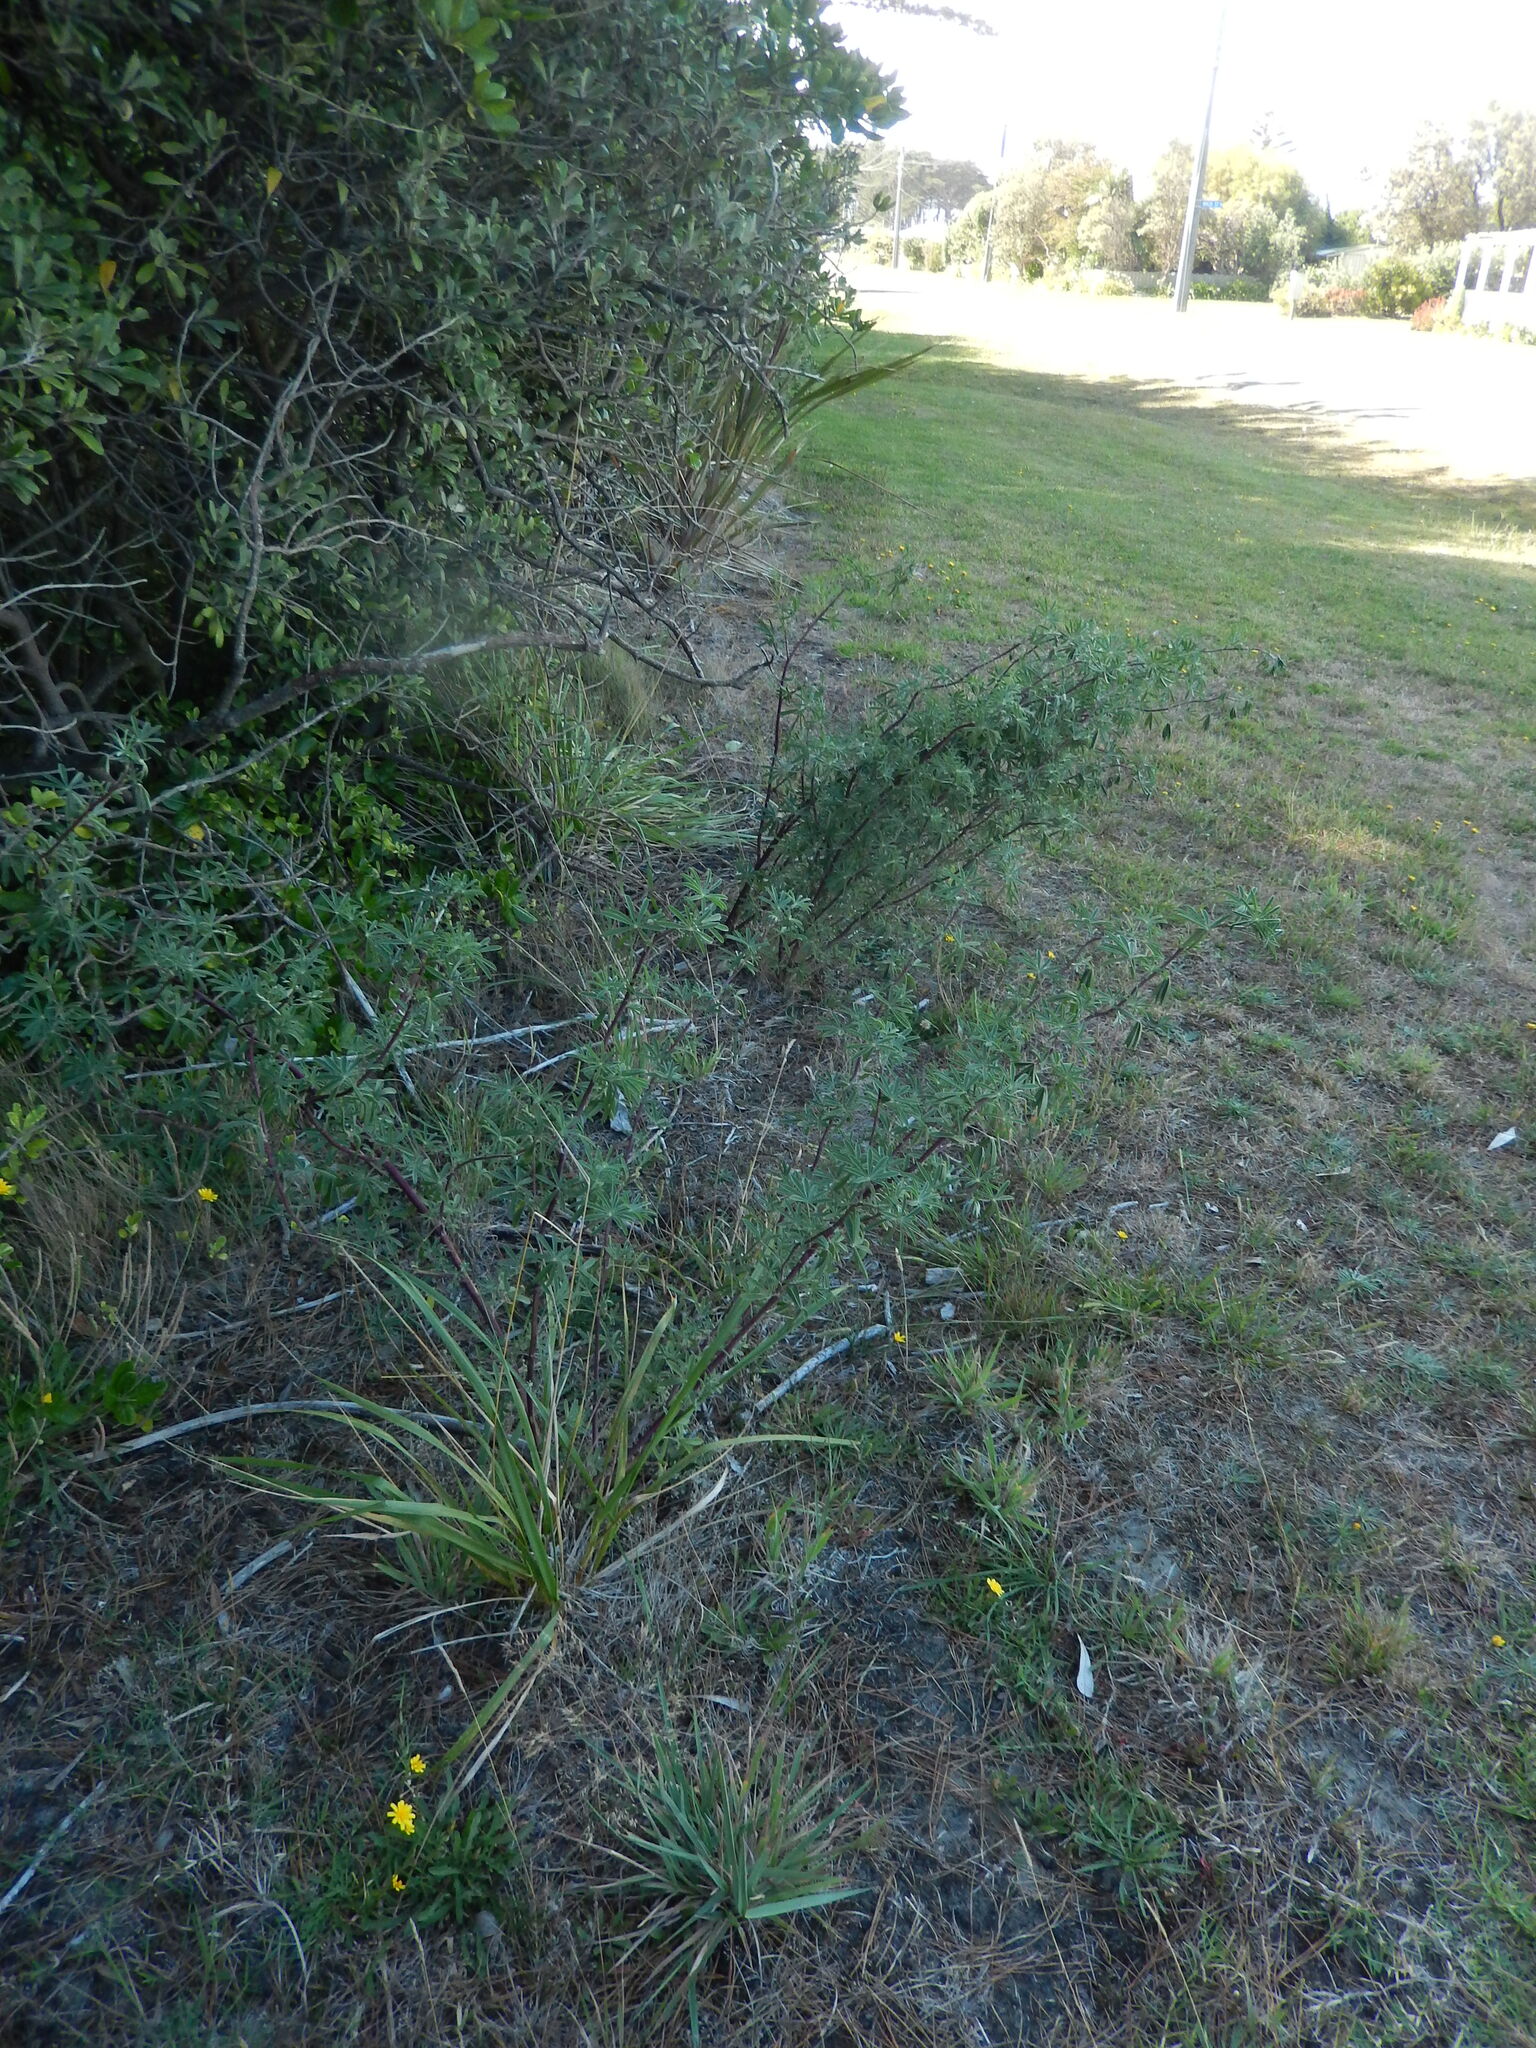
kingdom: Plantae
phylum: Tracheophyta
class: Magnoliopsida
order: Fabales
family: Fabaceae
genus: Lupinus
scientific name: Lupinus arboreus
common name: Yellow bush lupine
